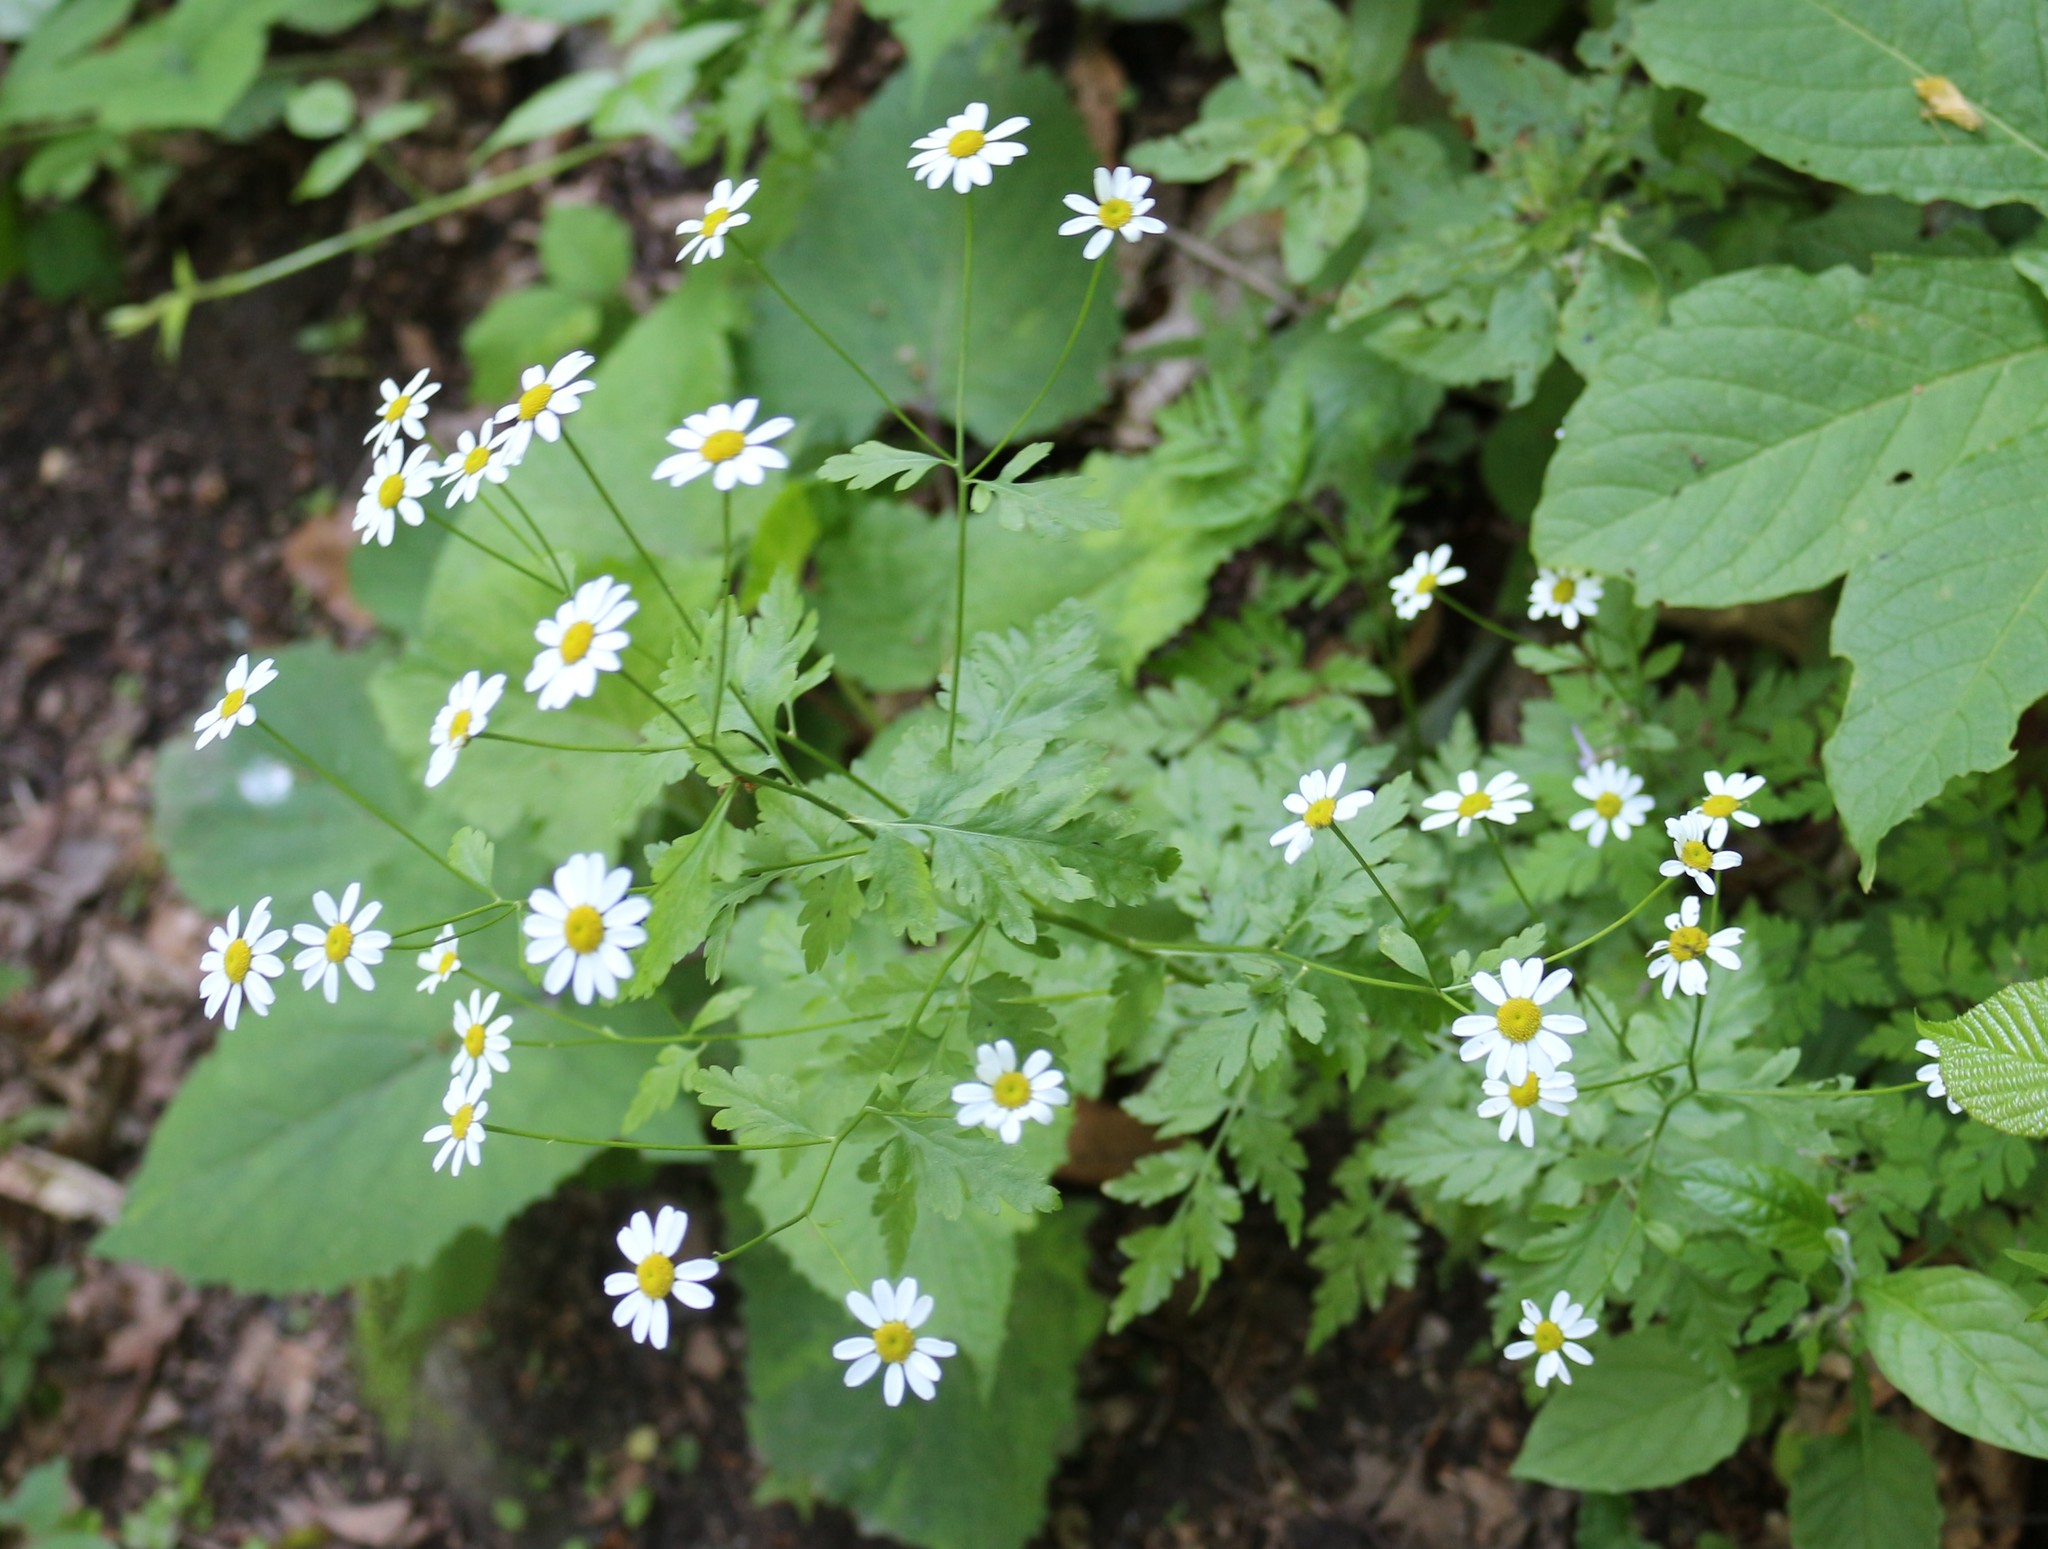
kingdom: Plantae
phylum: Tracheophyta
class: Magnoliopsida
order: Asterales
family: Asteraceae
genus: Tanacetum
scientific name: Tanacetum partheniifolium
